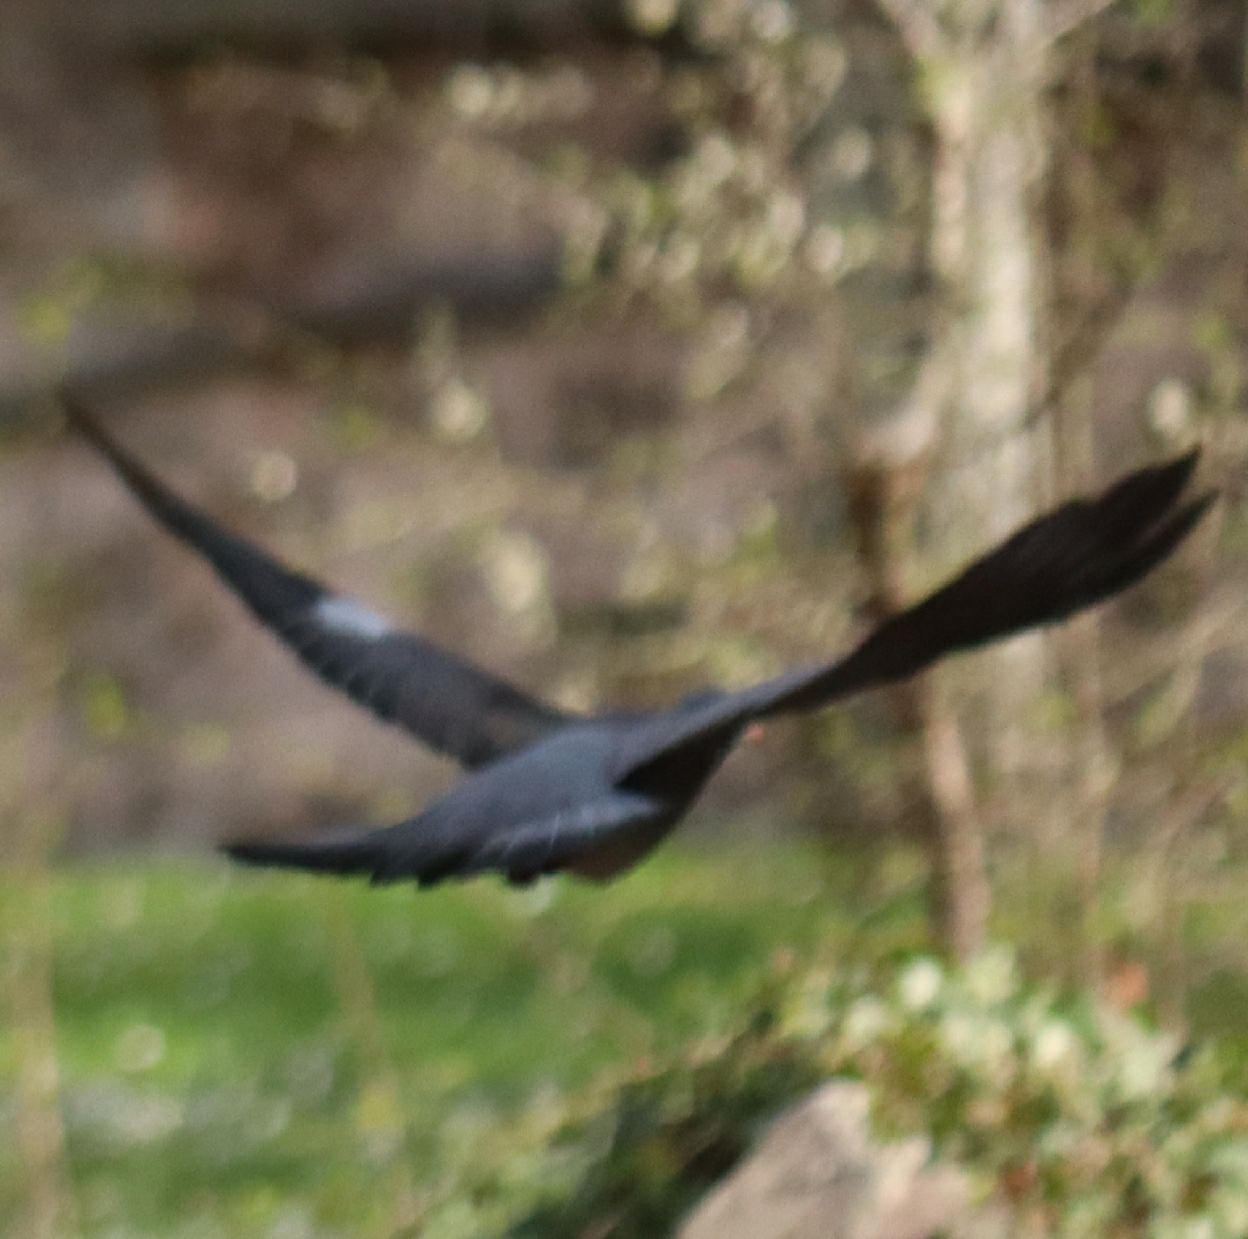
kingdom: Animalia
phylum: Chordata
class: Aves
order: Columbiformes
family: Columbidae
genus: Columba
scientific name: Columba palumbus
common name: Common wood pigeon
